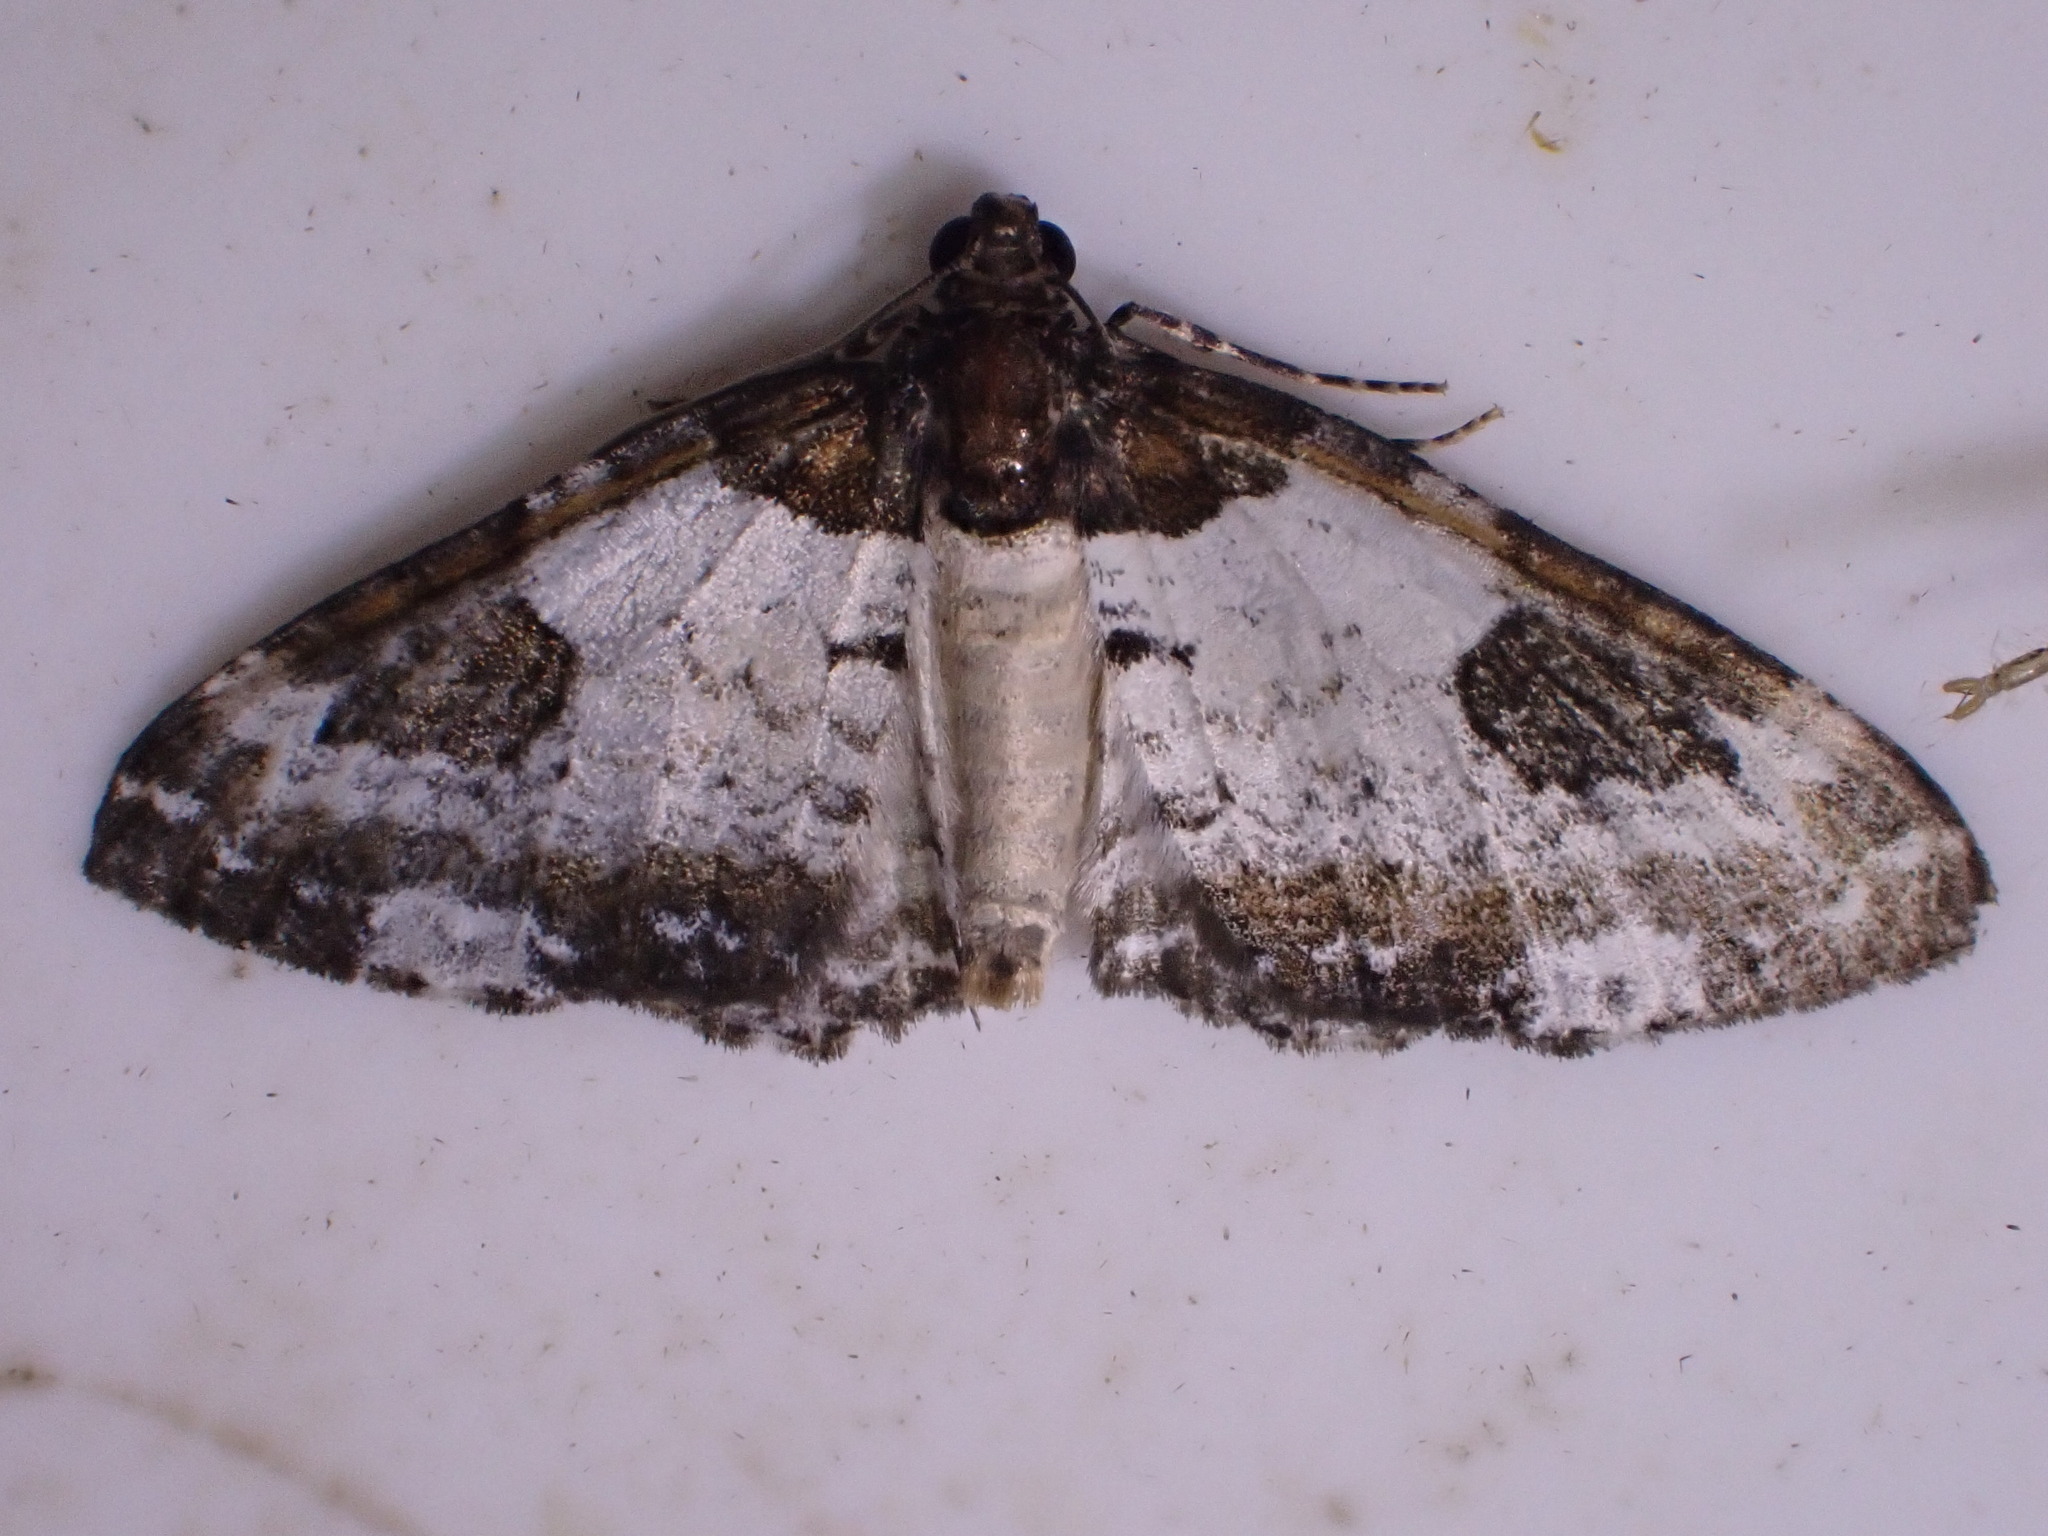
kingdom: Animalia
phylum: Arthropoda
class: Insecta
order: Lepidoptera
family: Geometridae
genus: Melanthia
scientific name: Melanthia procellata
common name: Pretty chalk carpet
